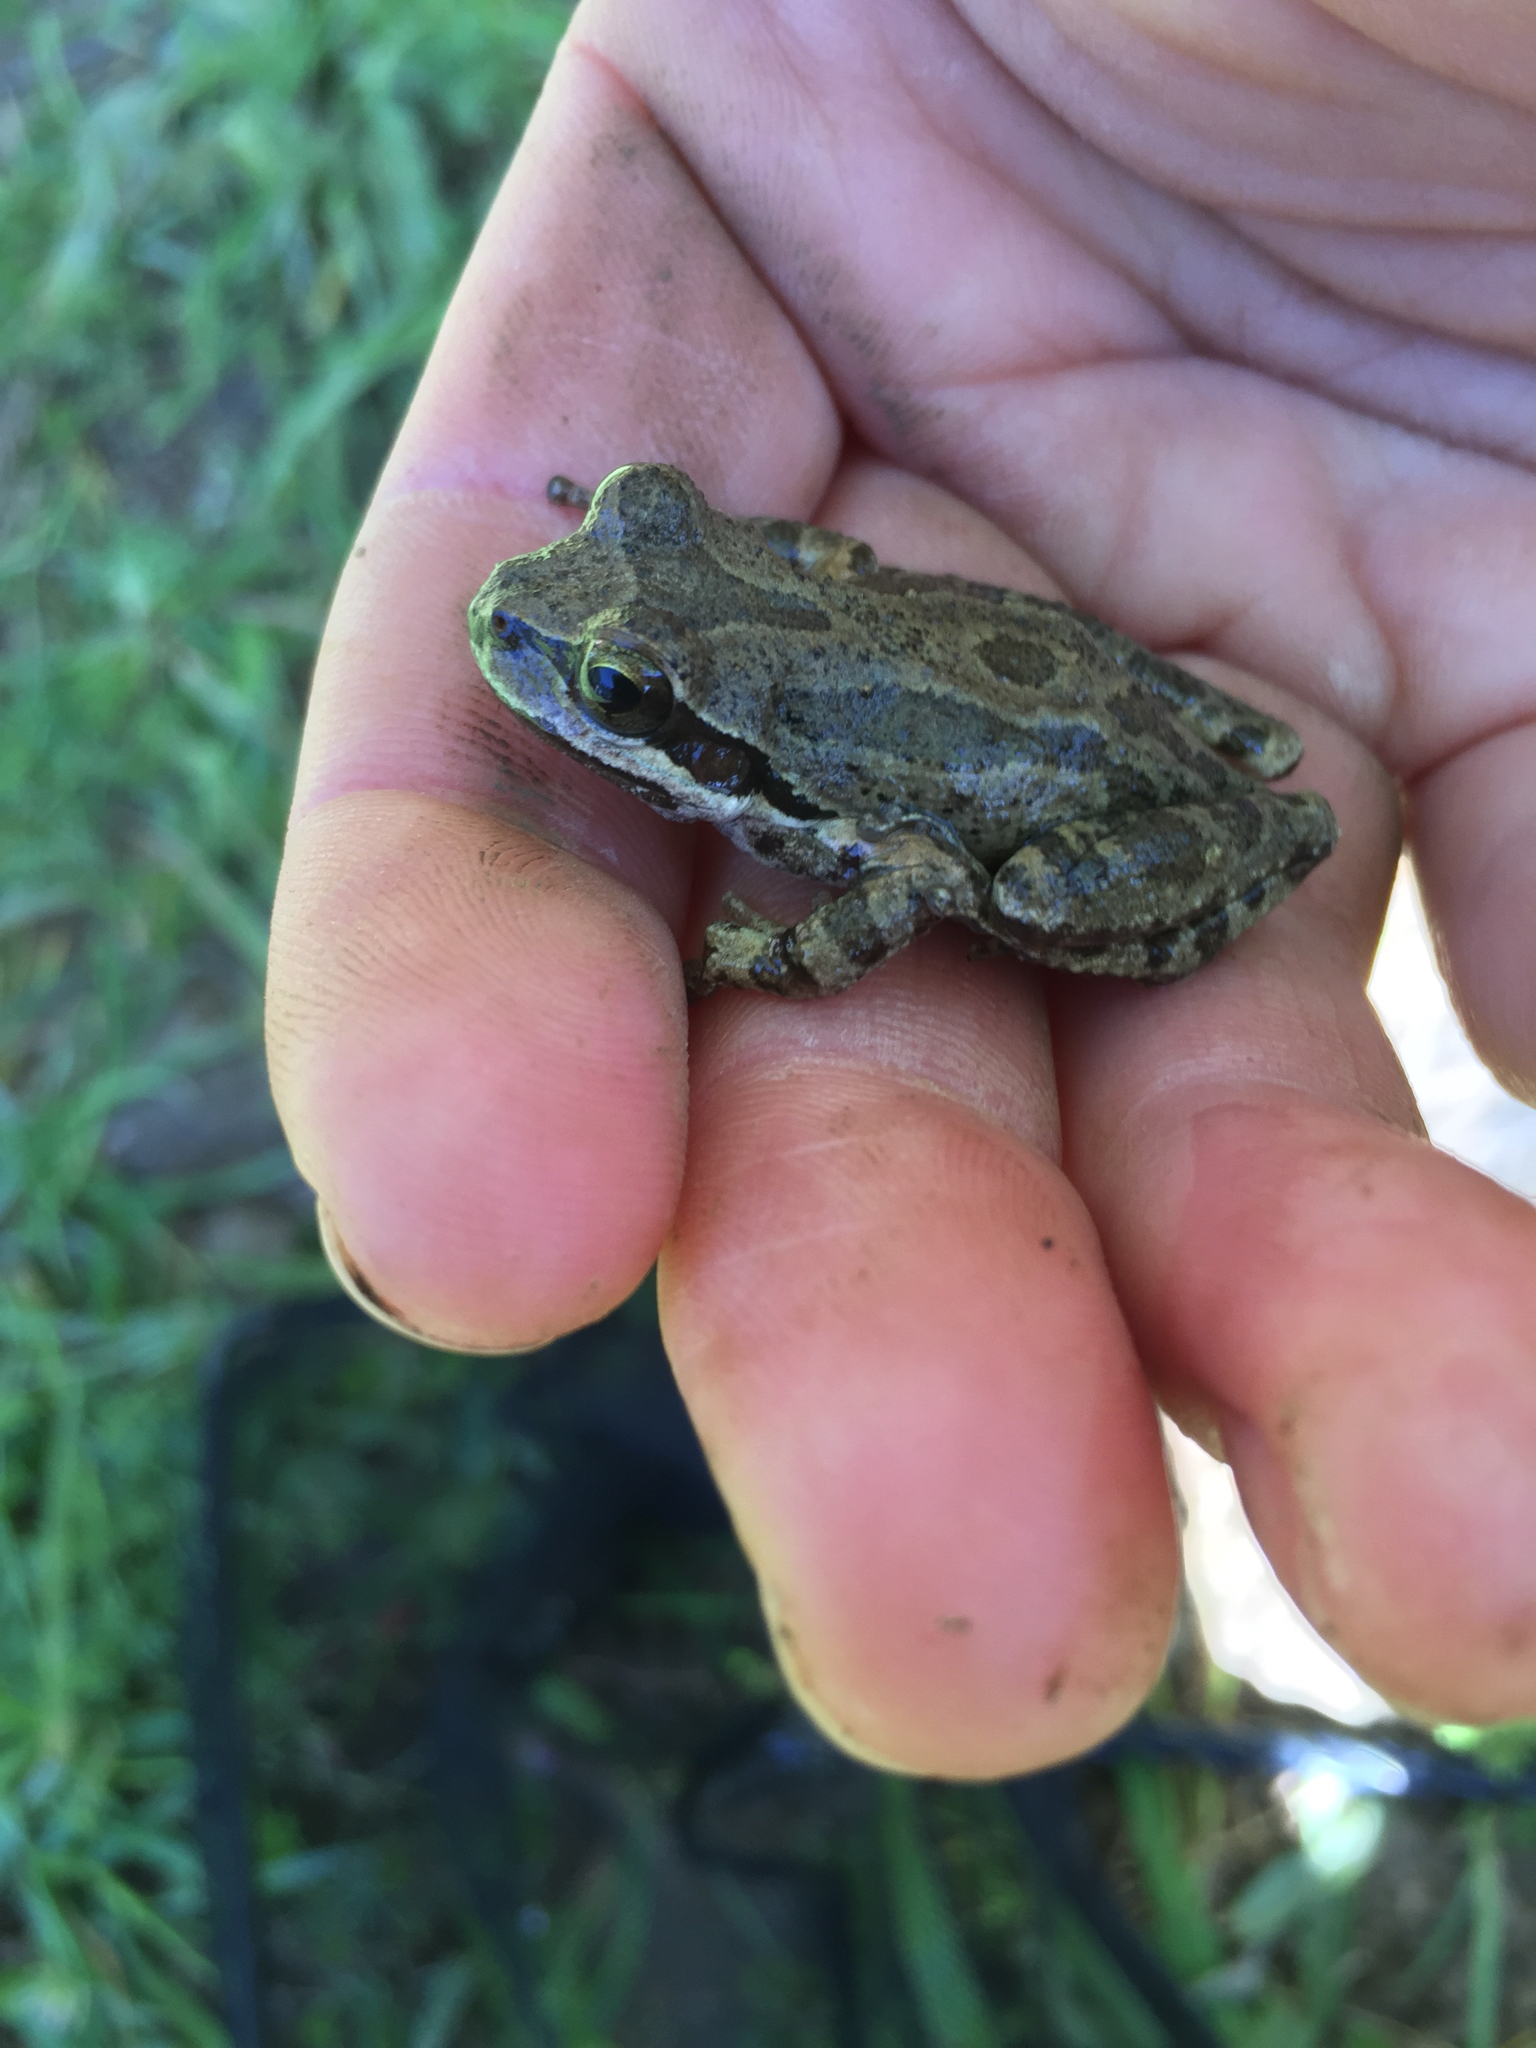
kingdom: Animalia
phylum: Chordata
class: Amphibia
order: Anura
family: Hylidae
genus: Pseudacris
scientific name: Pseudacris regilla
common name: Pacific chorus frog
